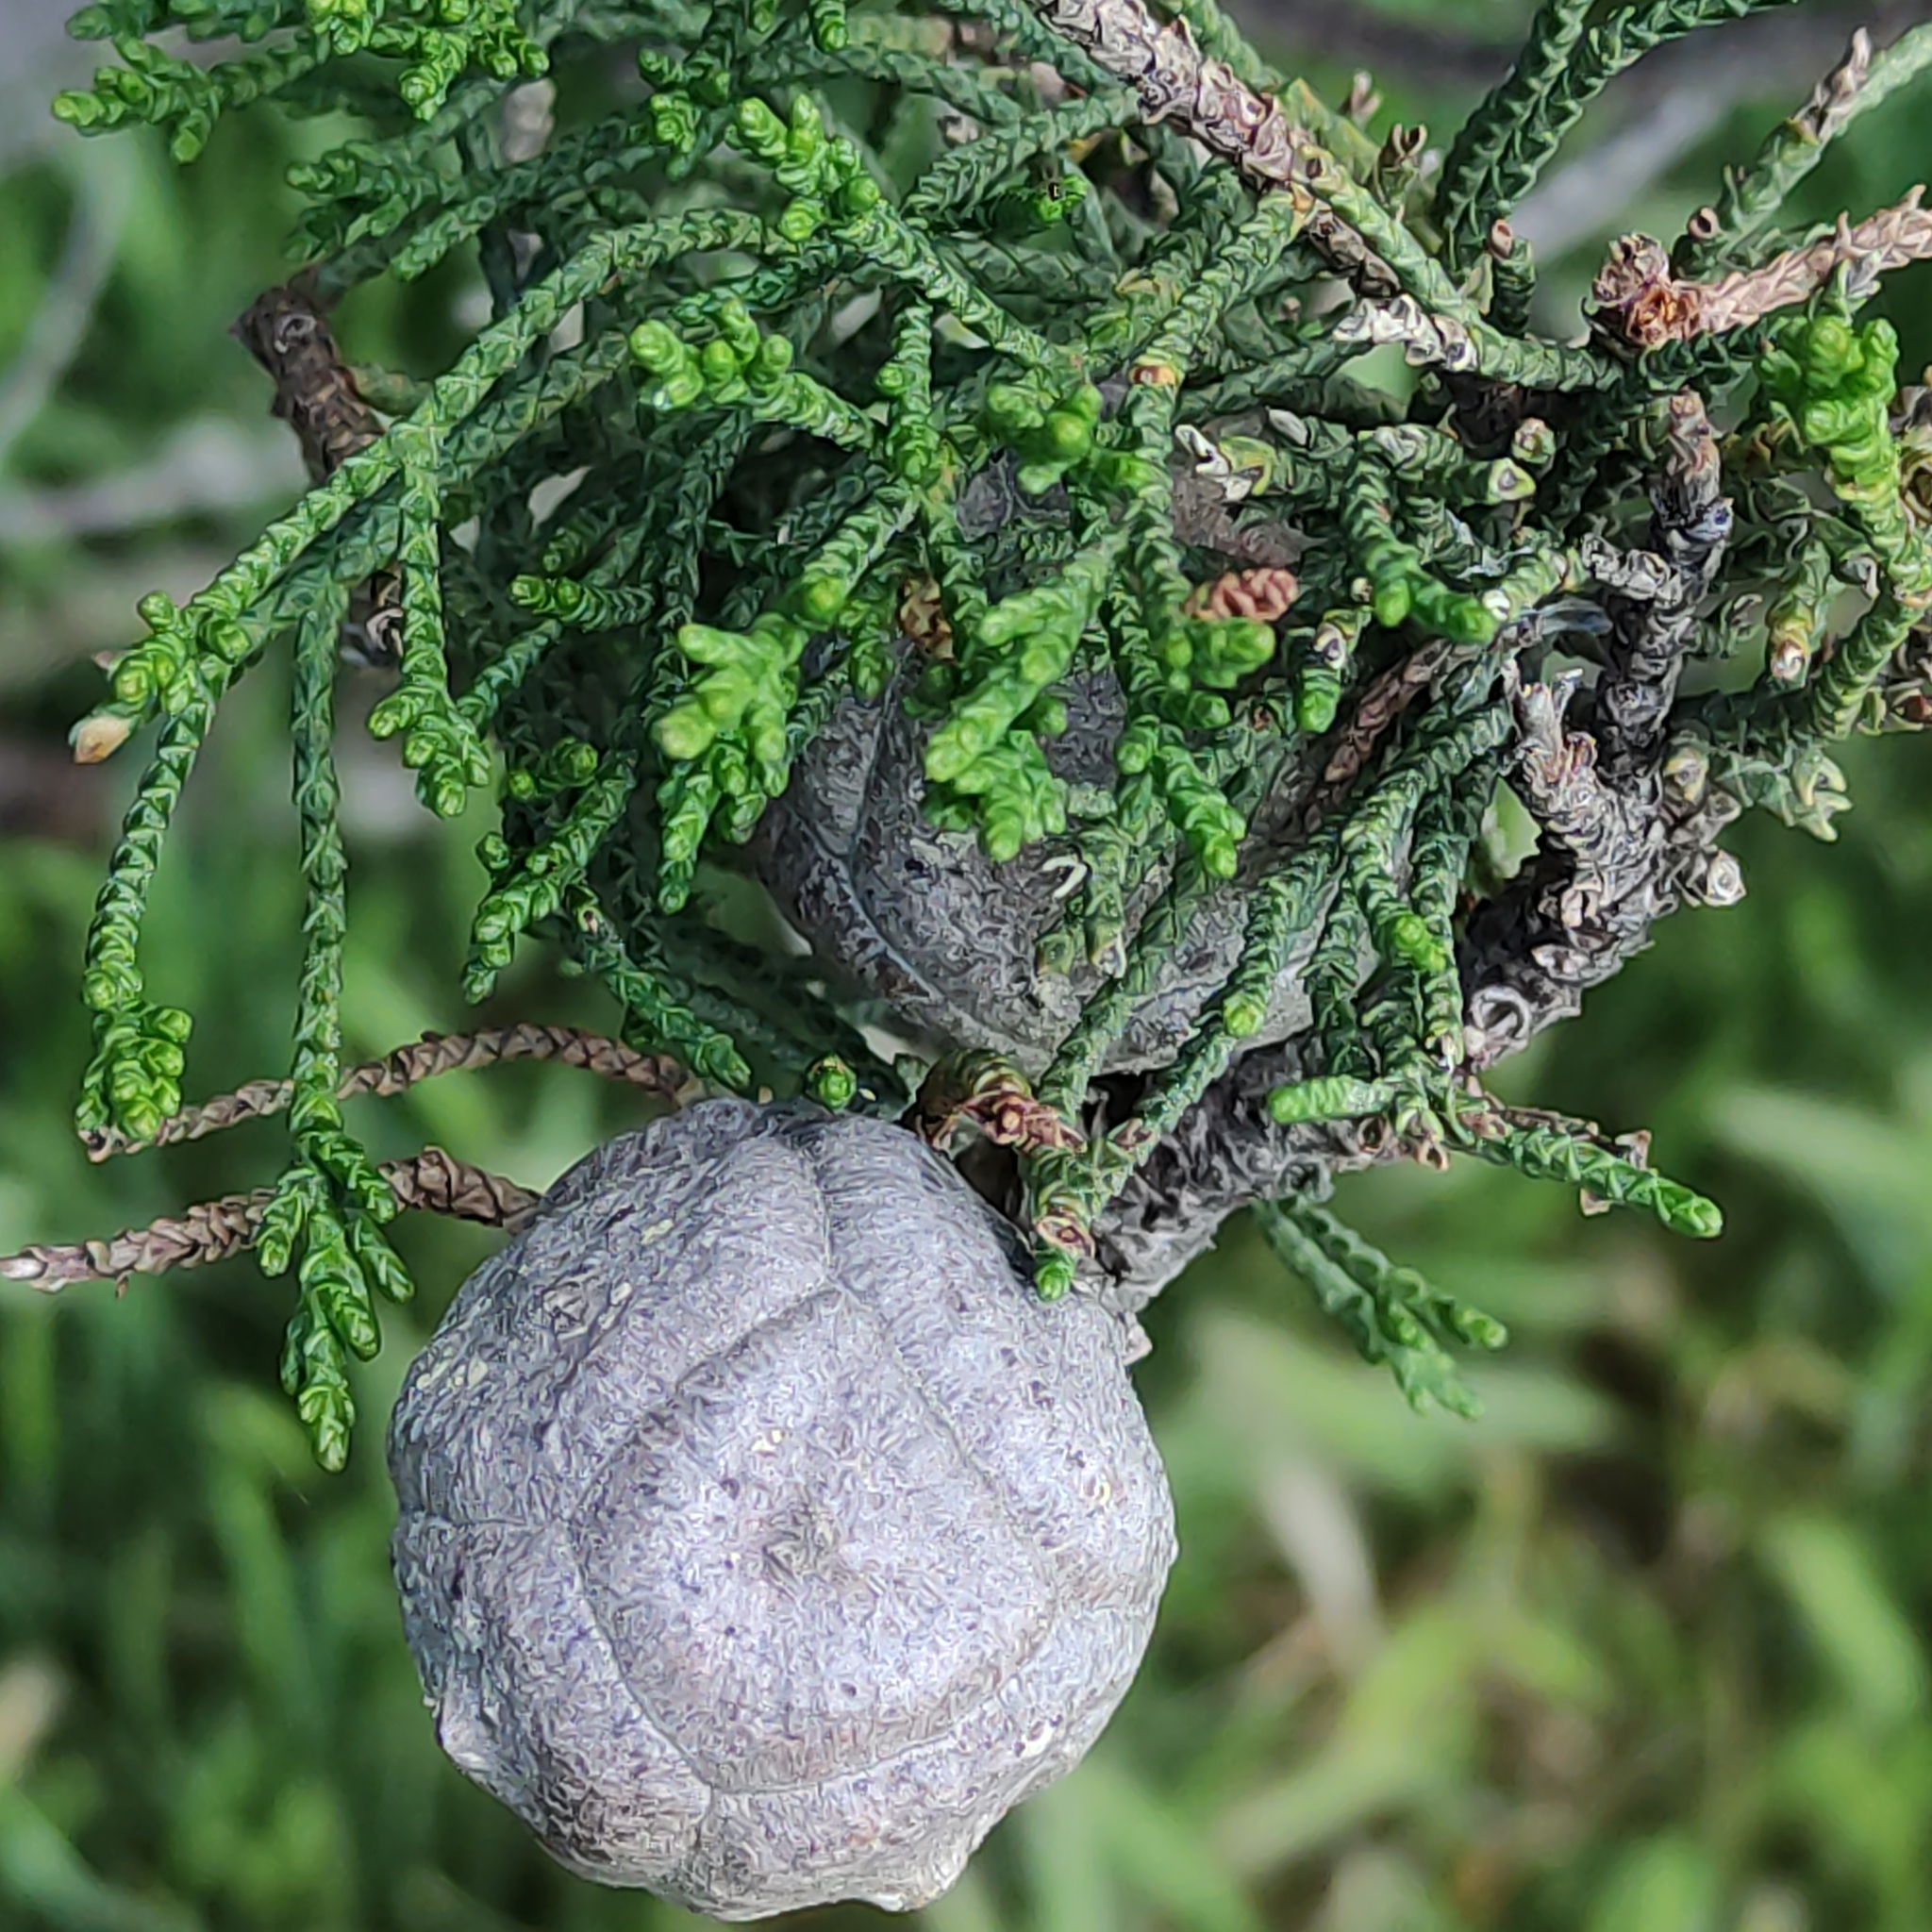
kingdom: Plantae
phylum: Tracheophyta
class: Pinopsida
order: Pinales
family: Cupressaceae
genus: Cupressus
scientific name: Cupressus macrocarpa
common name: Monterey cypress
